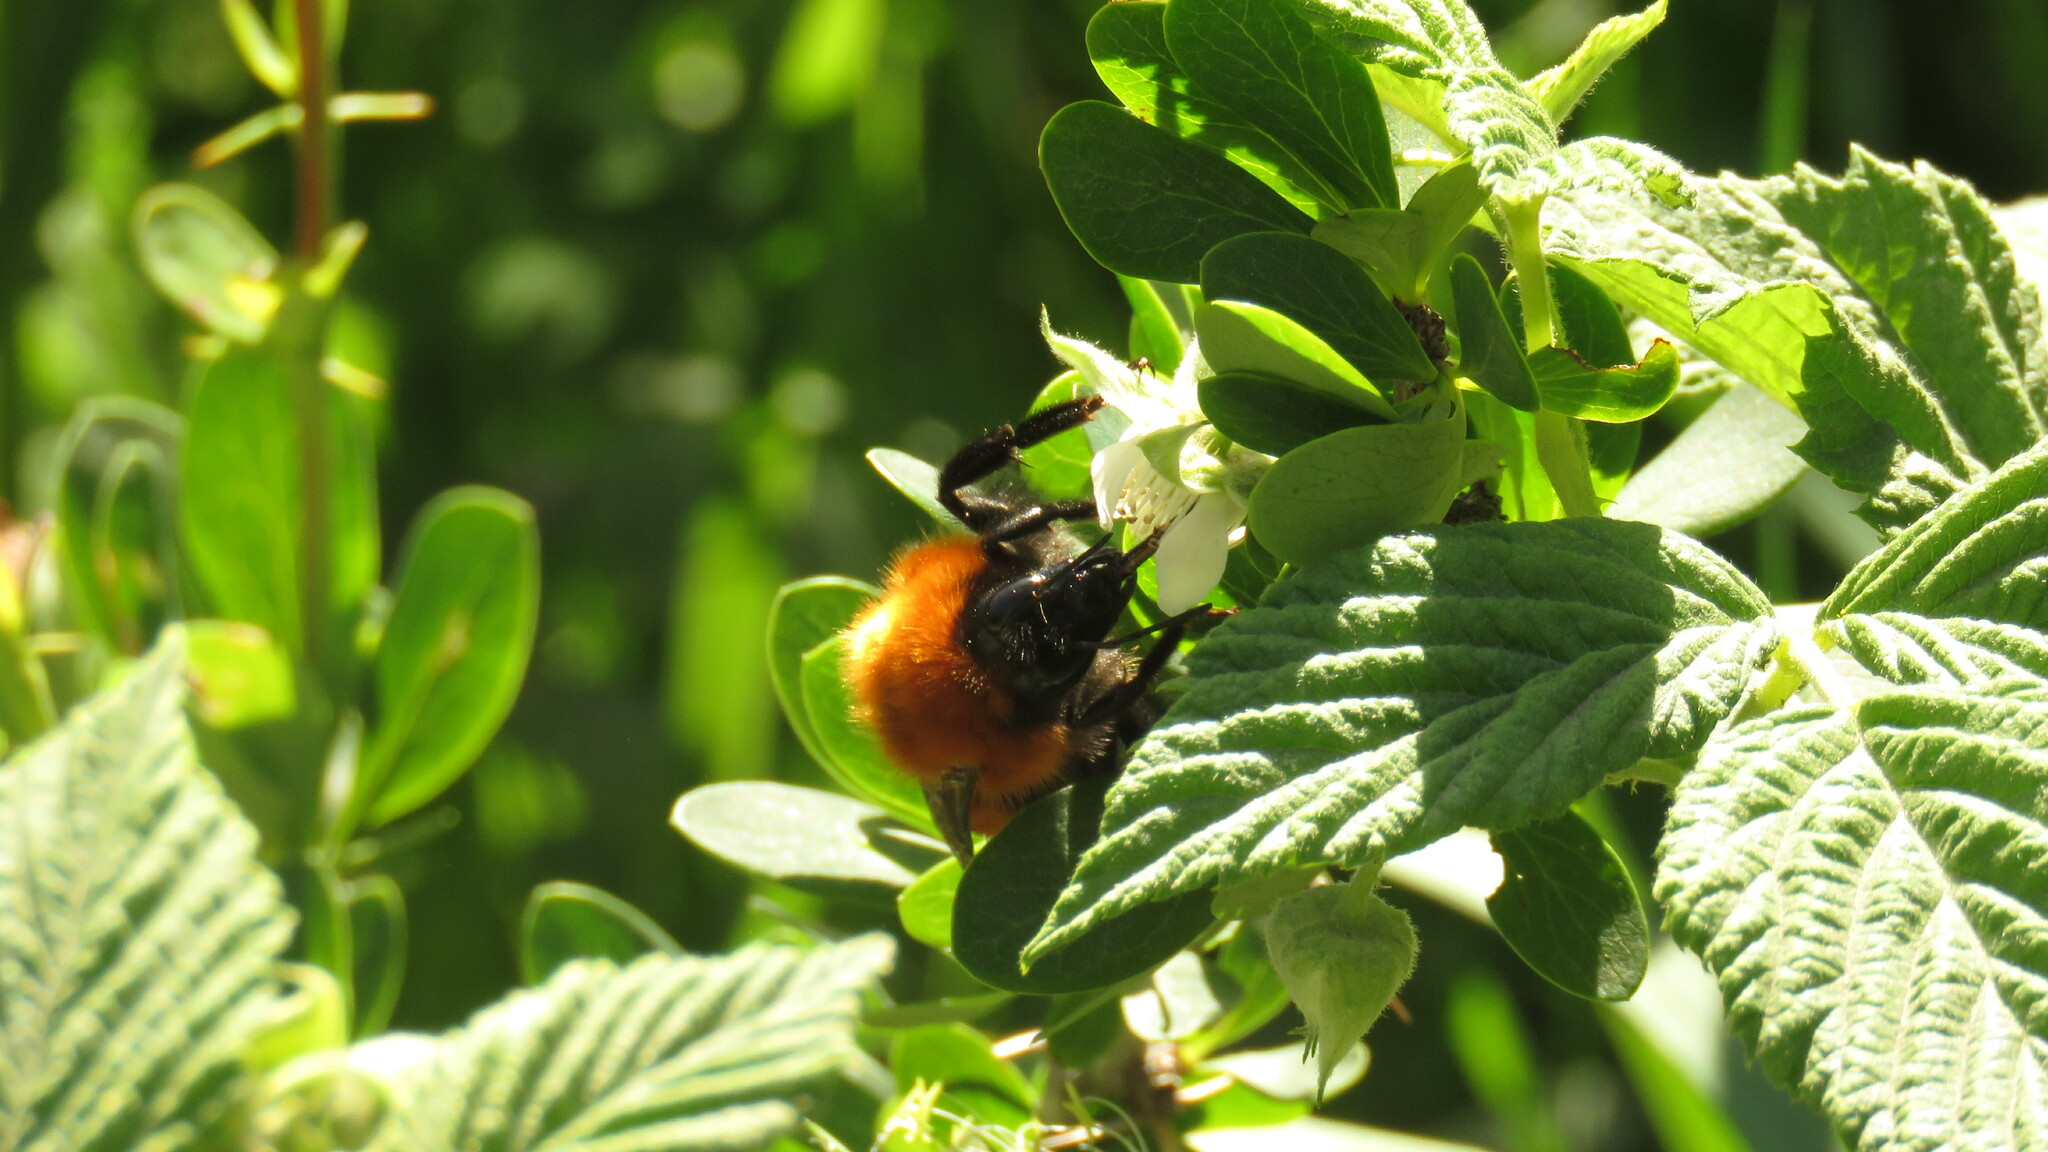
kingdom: Animalia
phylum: Arthropoda
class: Insecta
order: Hymenoptera
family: Apidae
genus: Bombus
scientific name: Bombus dahlbomii
